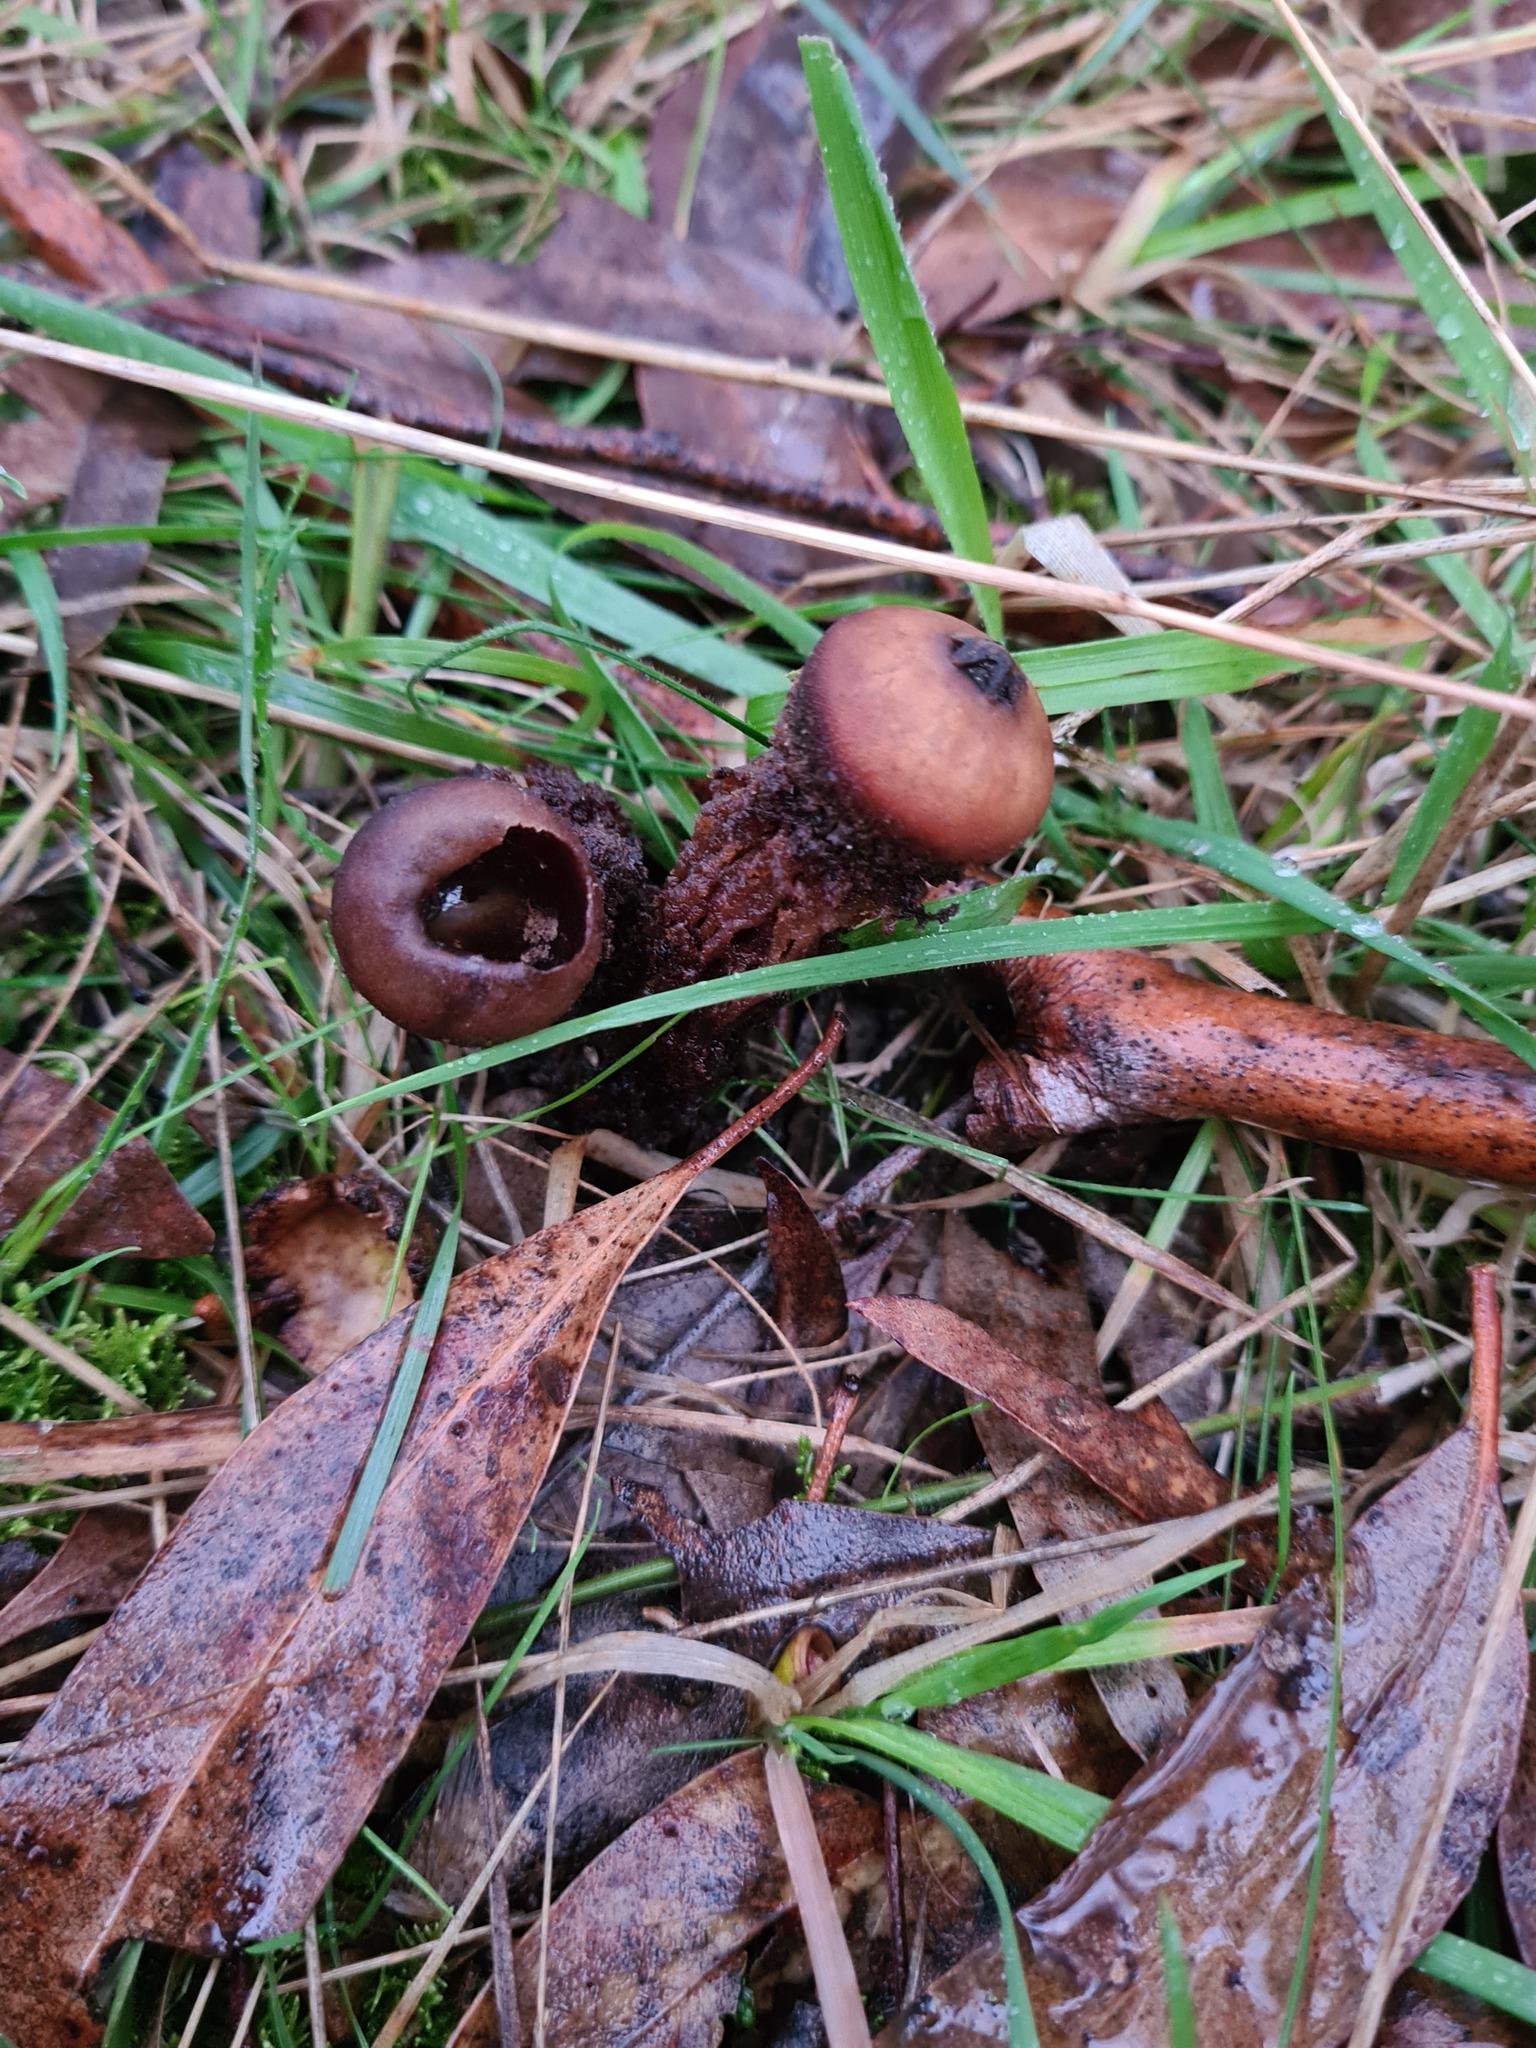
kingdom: Fungi
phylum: Basidiomycota
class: Agaricomycetes
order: Boletales
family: Calostomataceae
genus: Calostoma
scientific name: Calostoma fuscum
